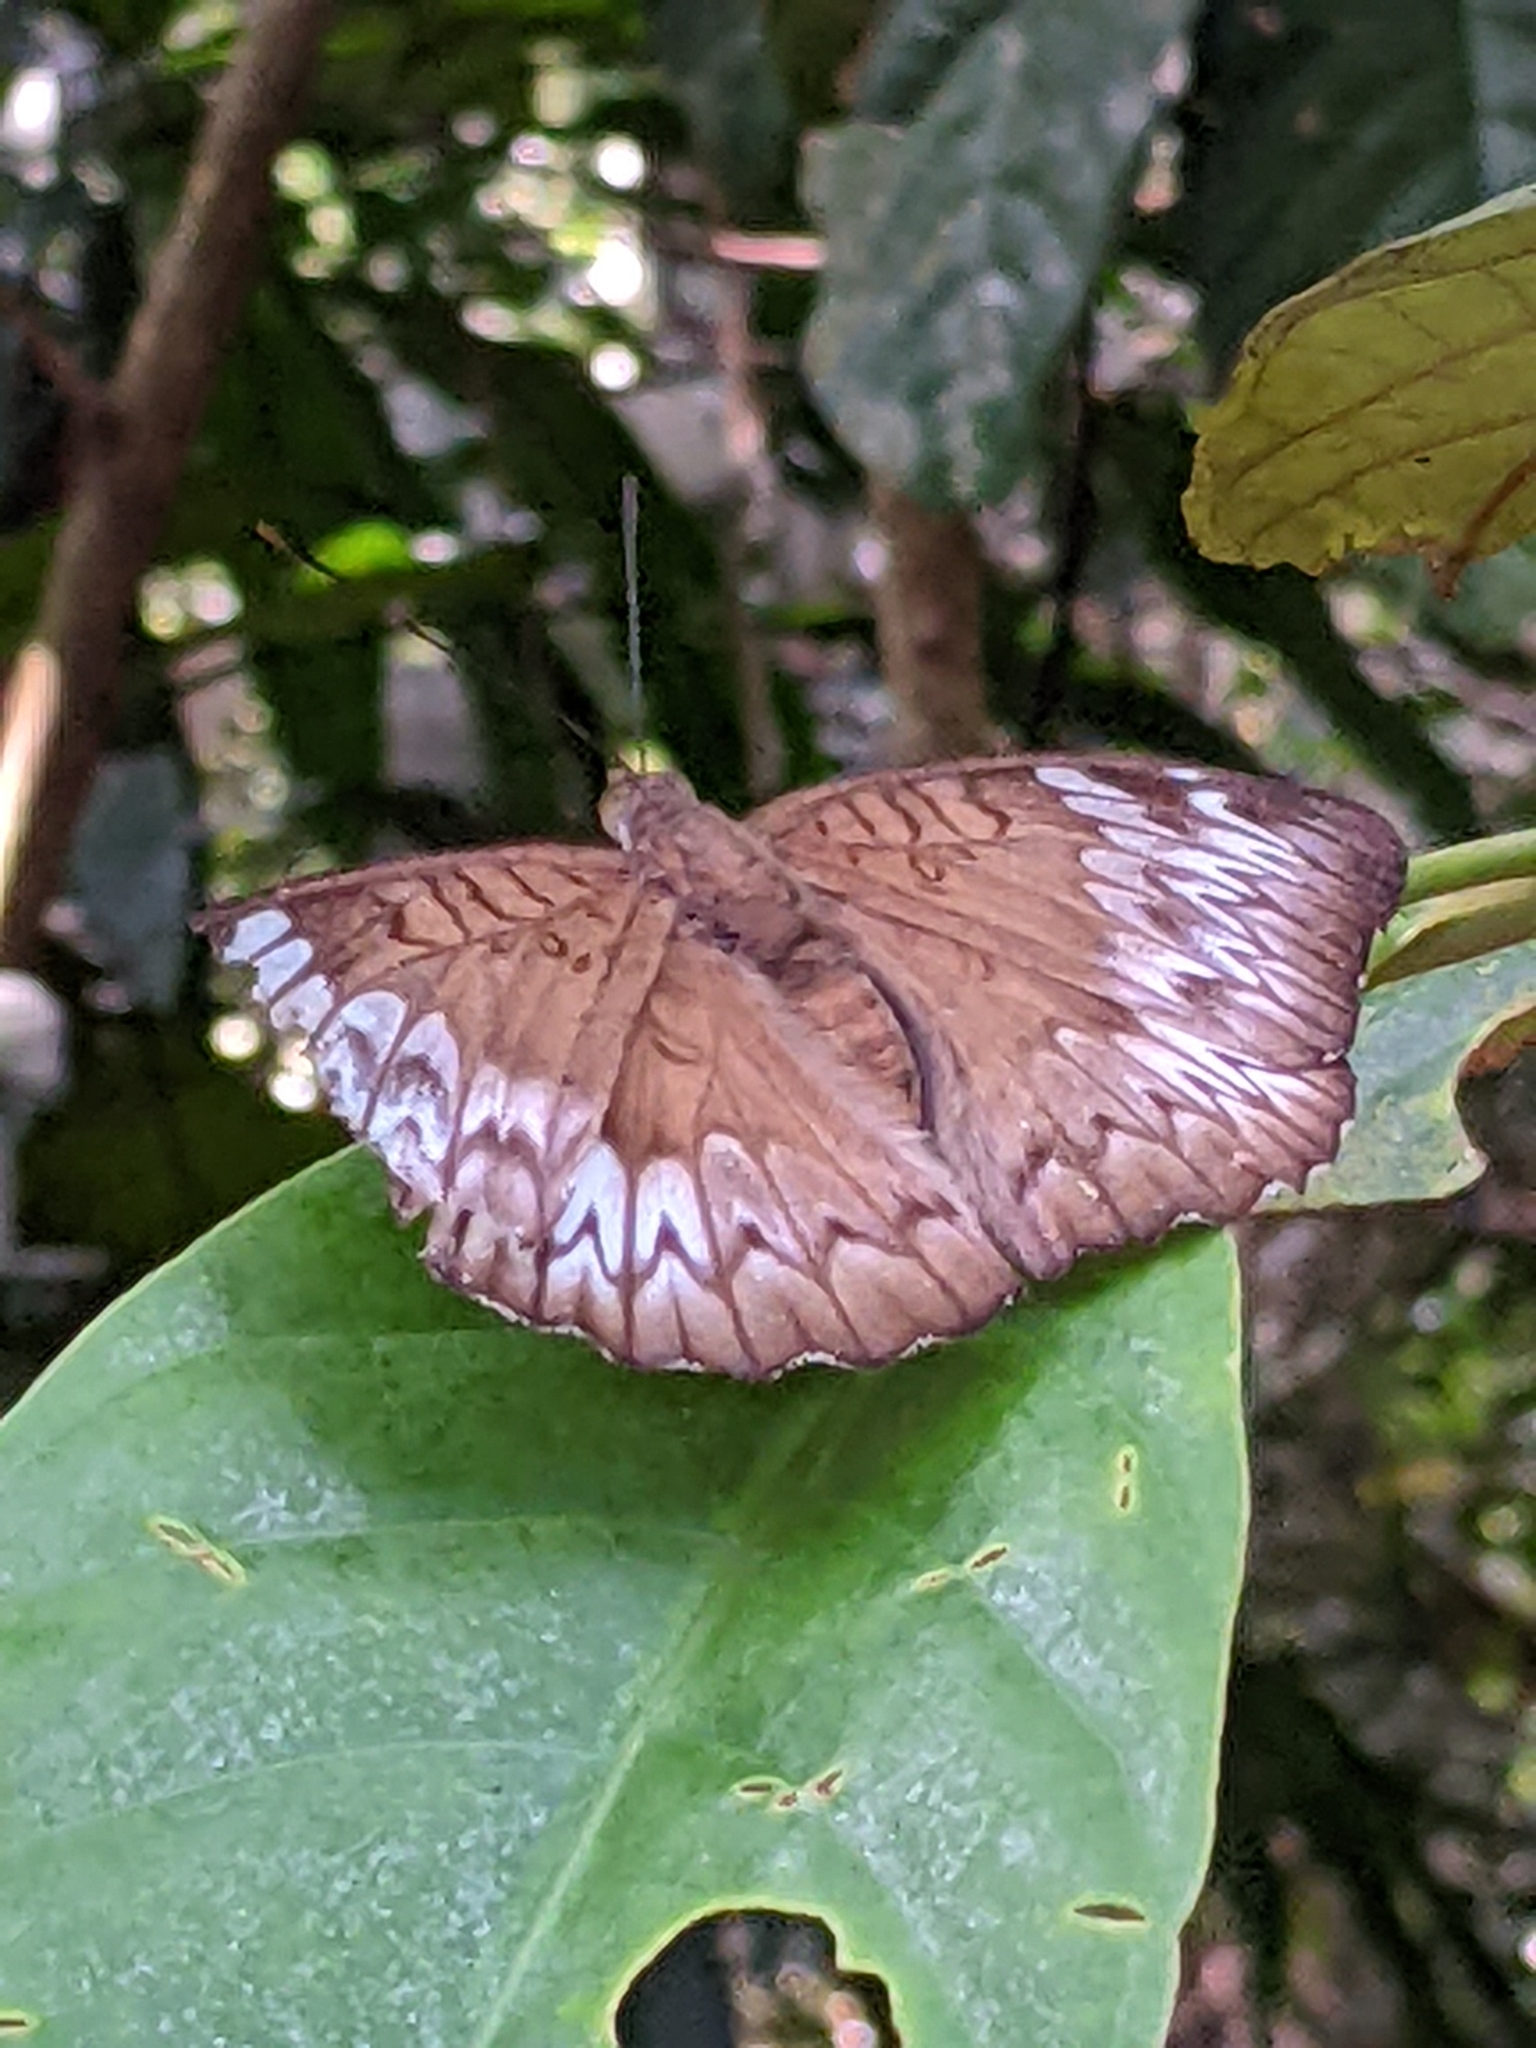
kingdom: Animalia
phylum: Arthropoda
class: Insecta
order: Lepidoptera
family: Nymphalidae
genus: Euthalia
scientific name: Euthalia monina
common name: Powdered baron
